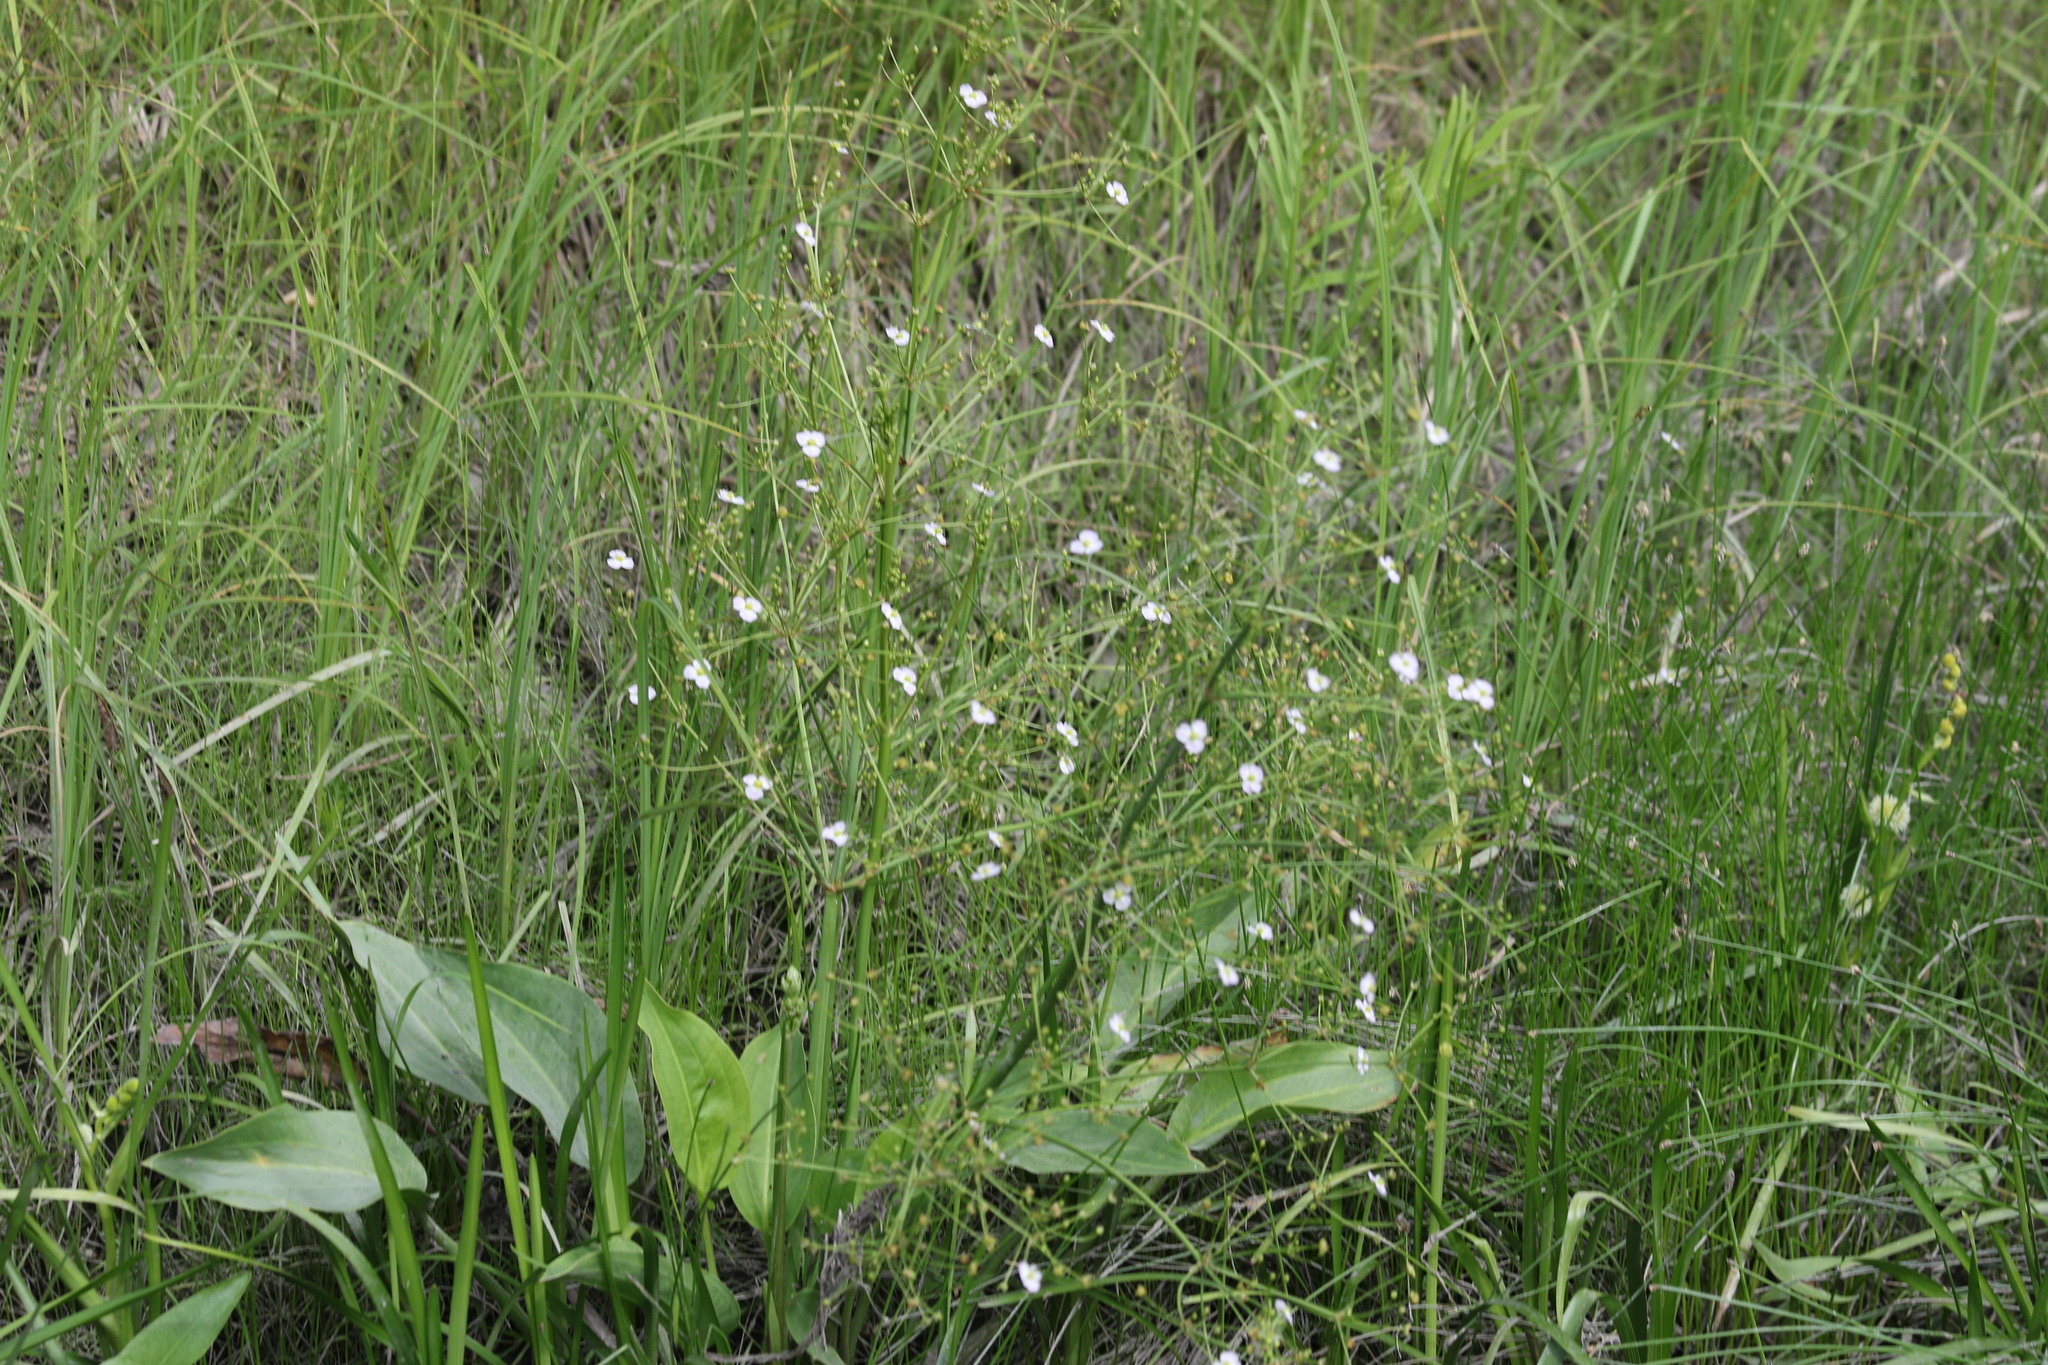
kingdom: Plantae
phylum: Tracheophyta
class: Liliopsida
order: Alismatales
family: Alismataceae
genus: Alisma
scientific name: Alisma plantago-aquatica
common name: Water-plantain
